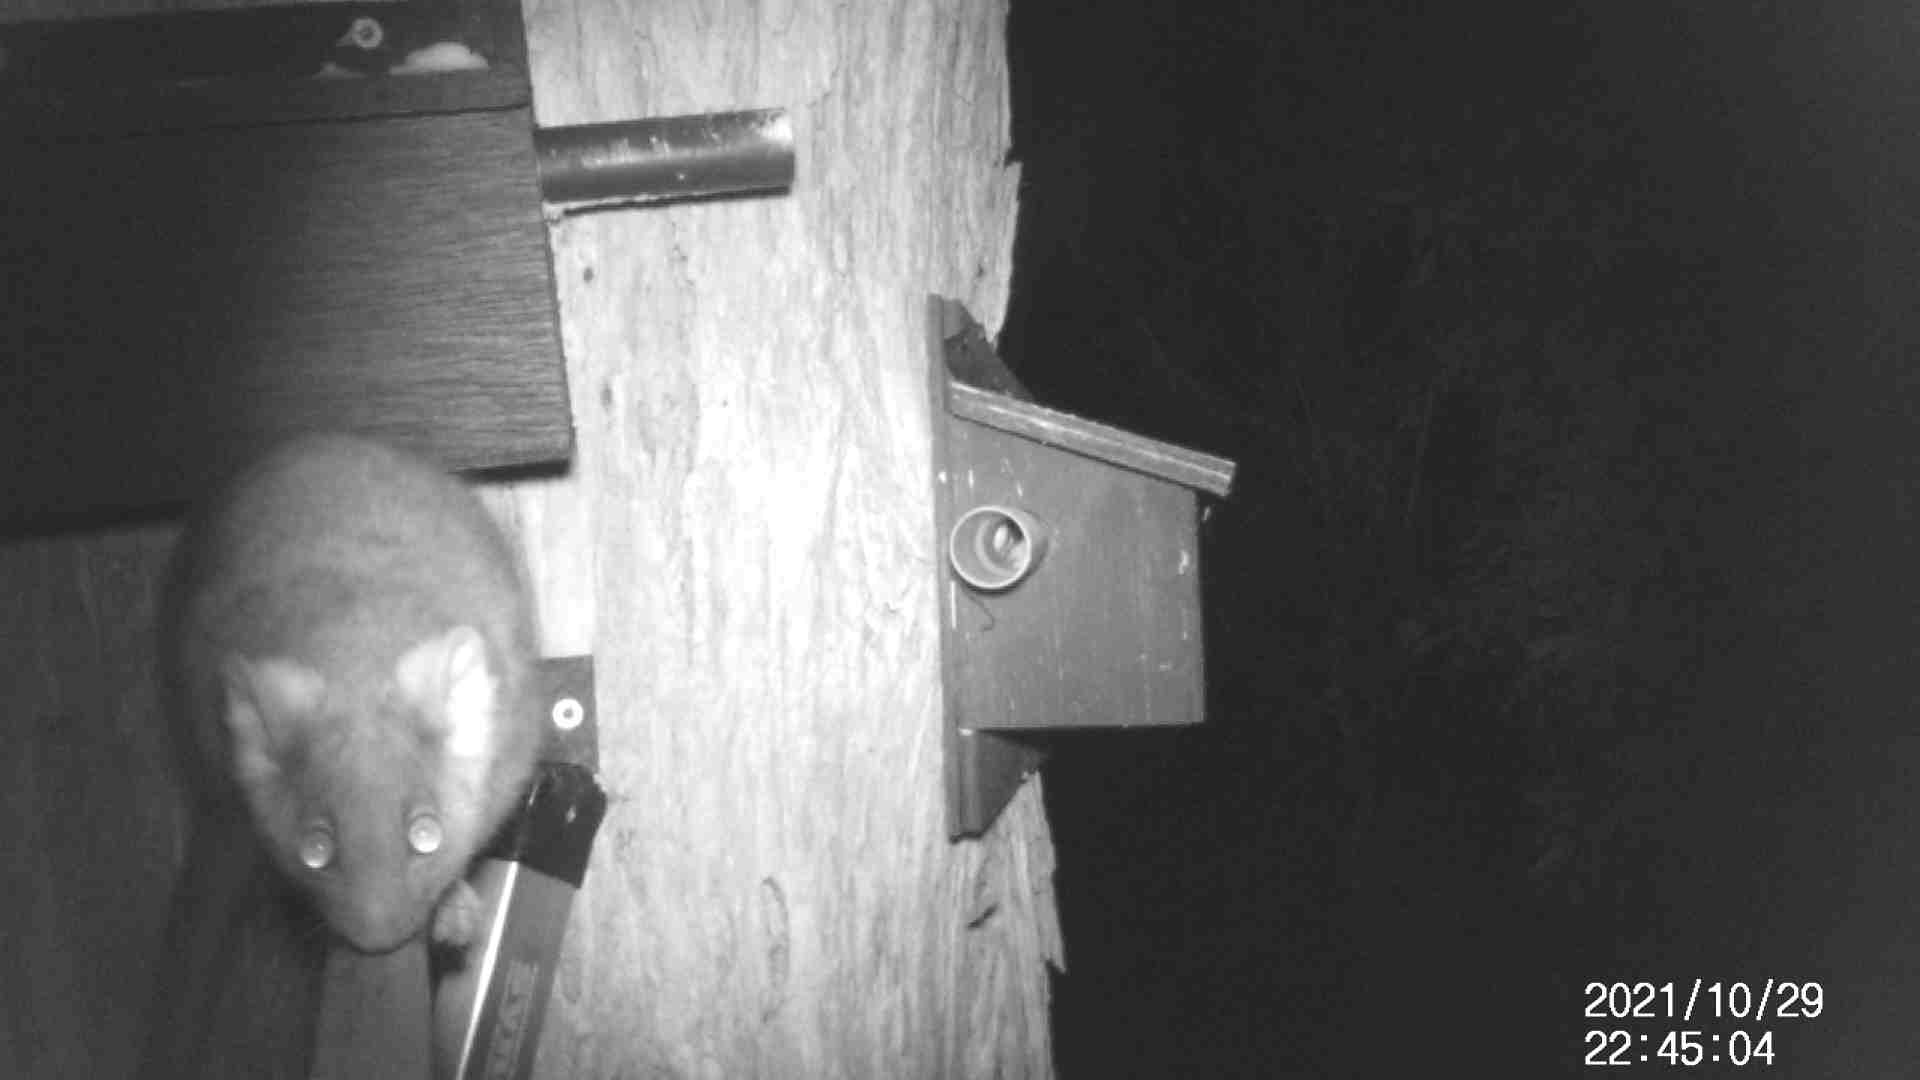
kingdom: Animalia
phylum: Chordata
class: Mammalia
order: Diprotodontia
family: Pseudocheiridae
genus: Pseudocheirus
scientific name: Pseudocheirus peregrinus
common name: Common ringtail possum
